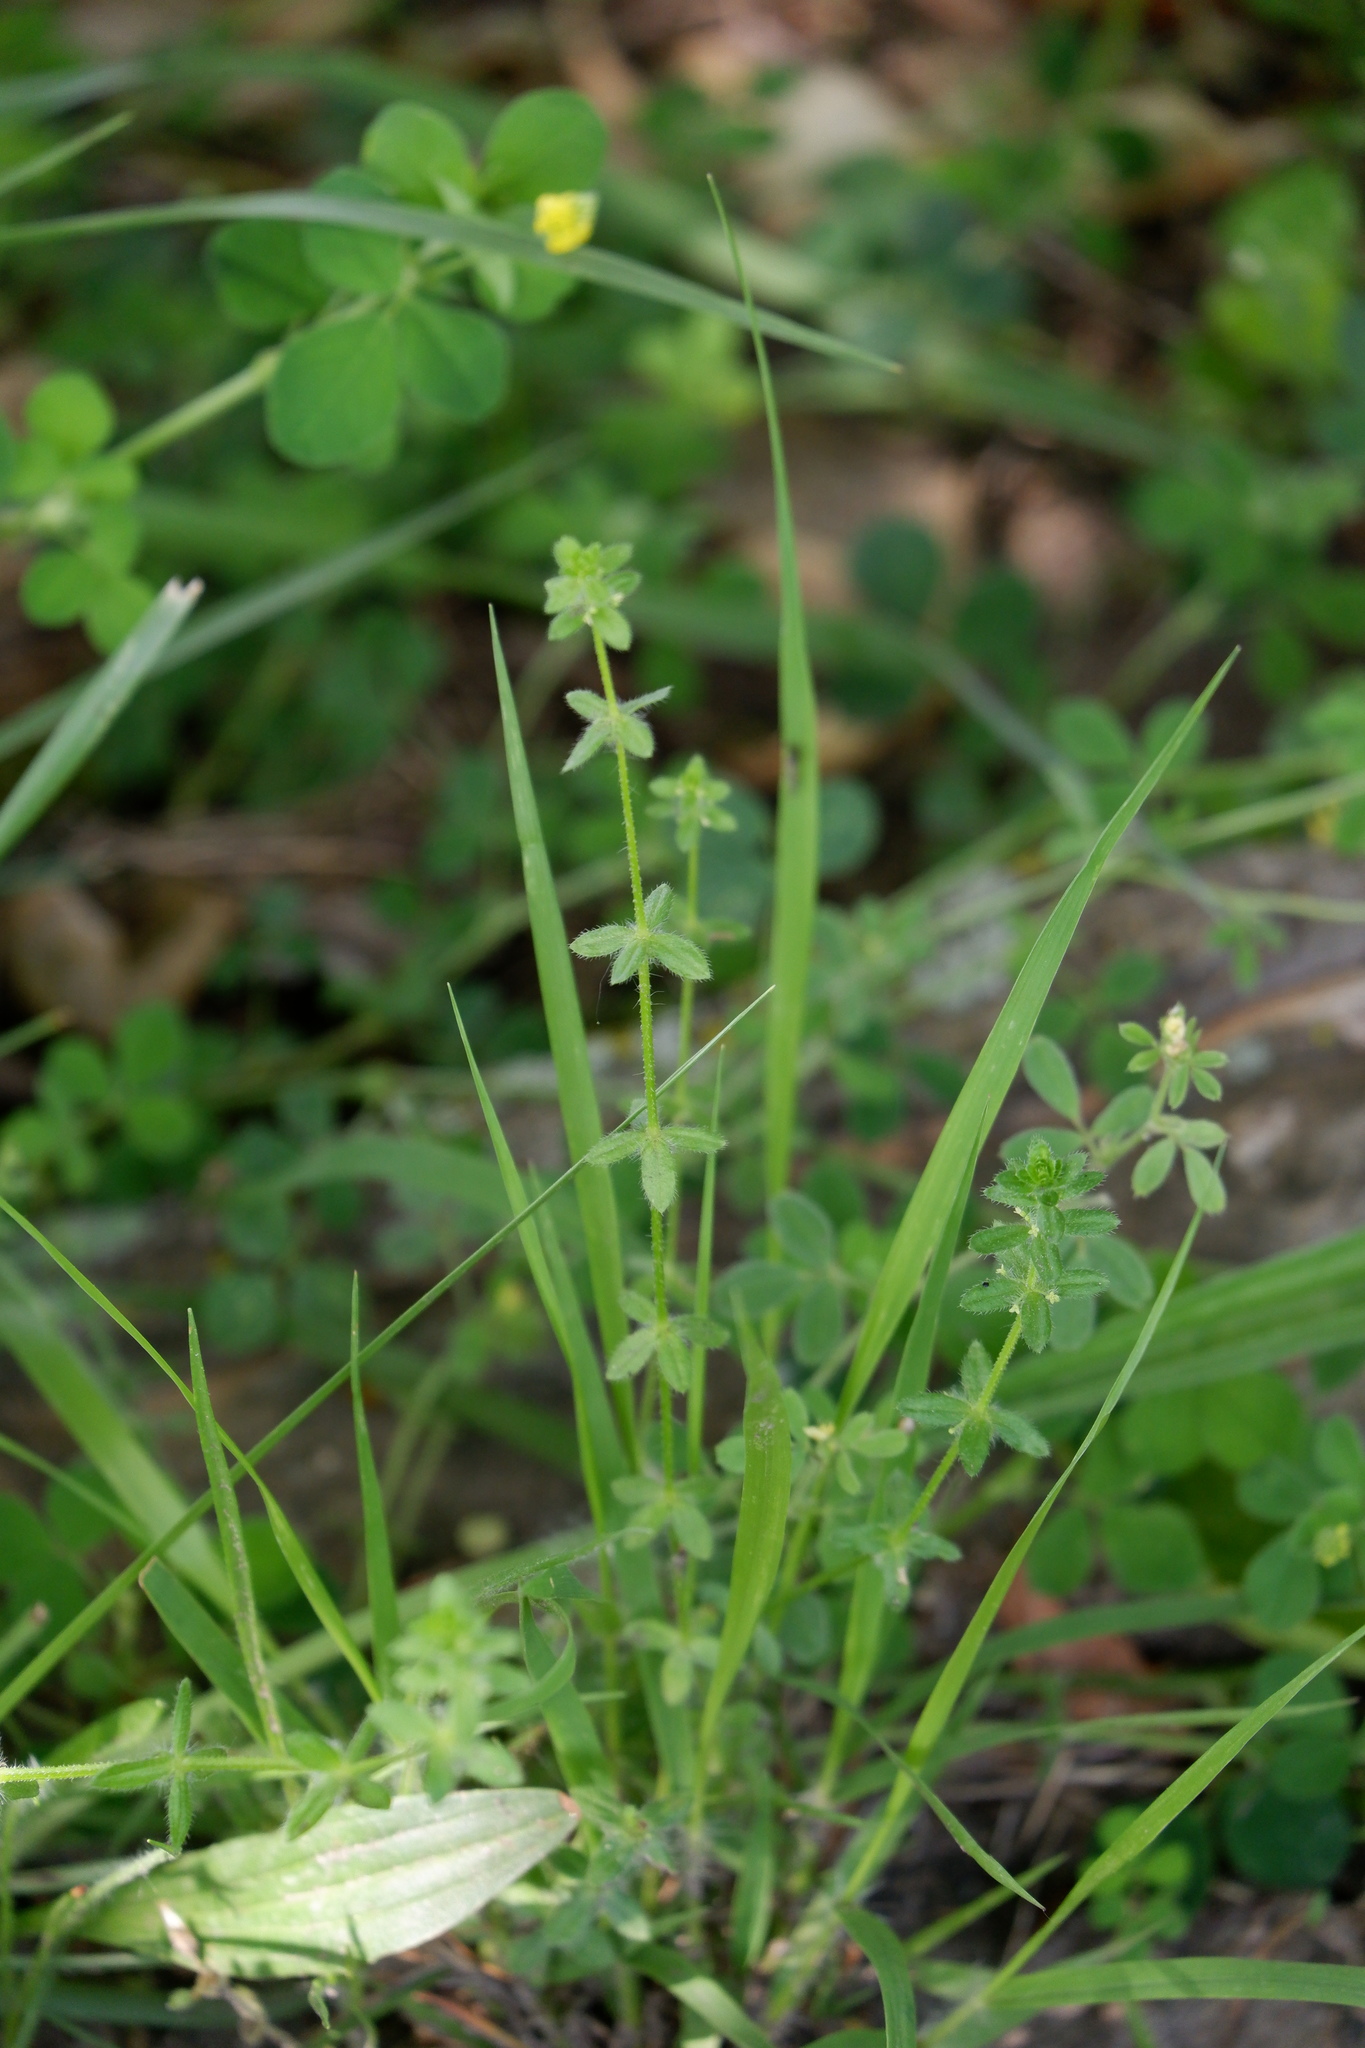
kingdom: Plantae
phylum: Tracheophyta
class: Magnoliopsida
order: Gentianales
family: Rubiaceae
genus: Cruciata
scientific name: Cruciata pedemontana
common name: Piedmont bedstraw
